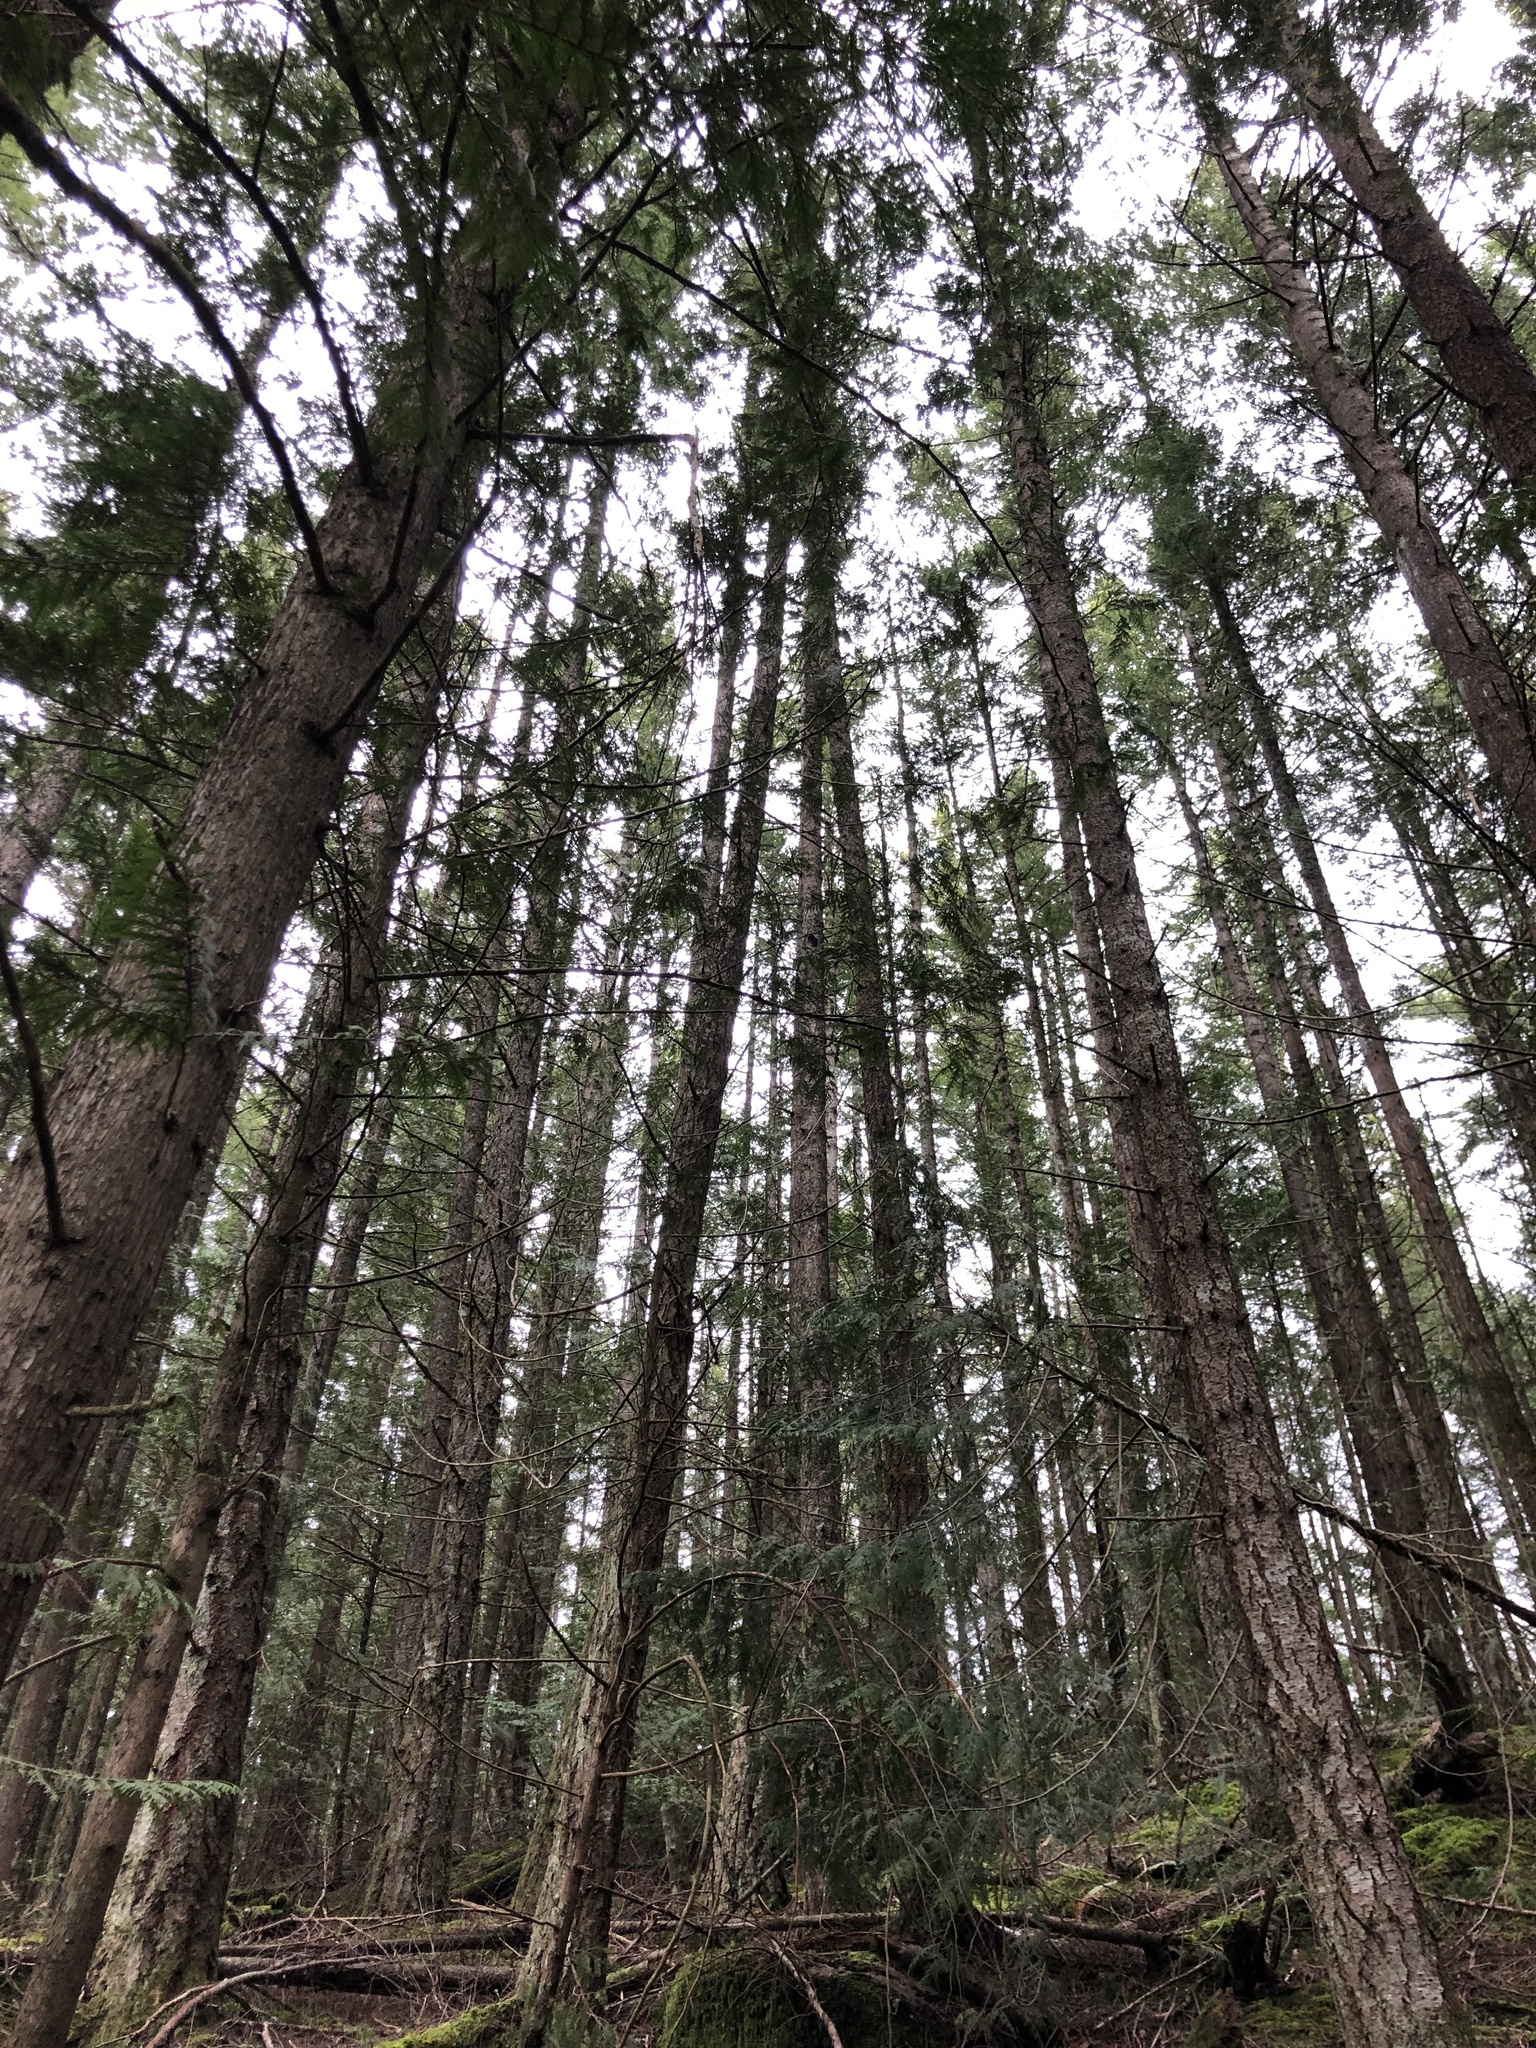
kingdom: Plantae
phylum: Tracheophyta
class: Pinopsida
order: Pinales
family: Cupressaceae
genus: Thuja
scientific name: Thuja plicata
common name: Western red-cedar
